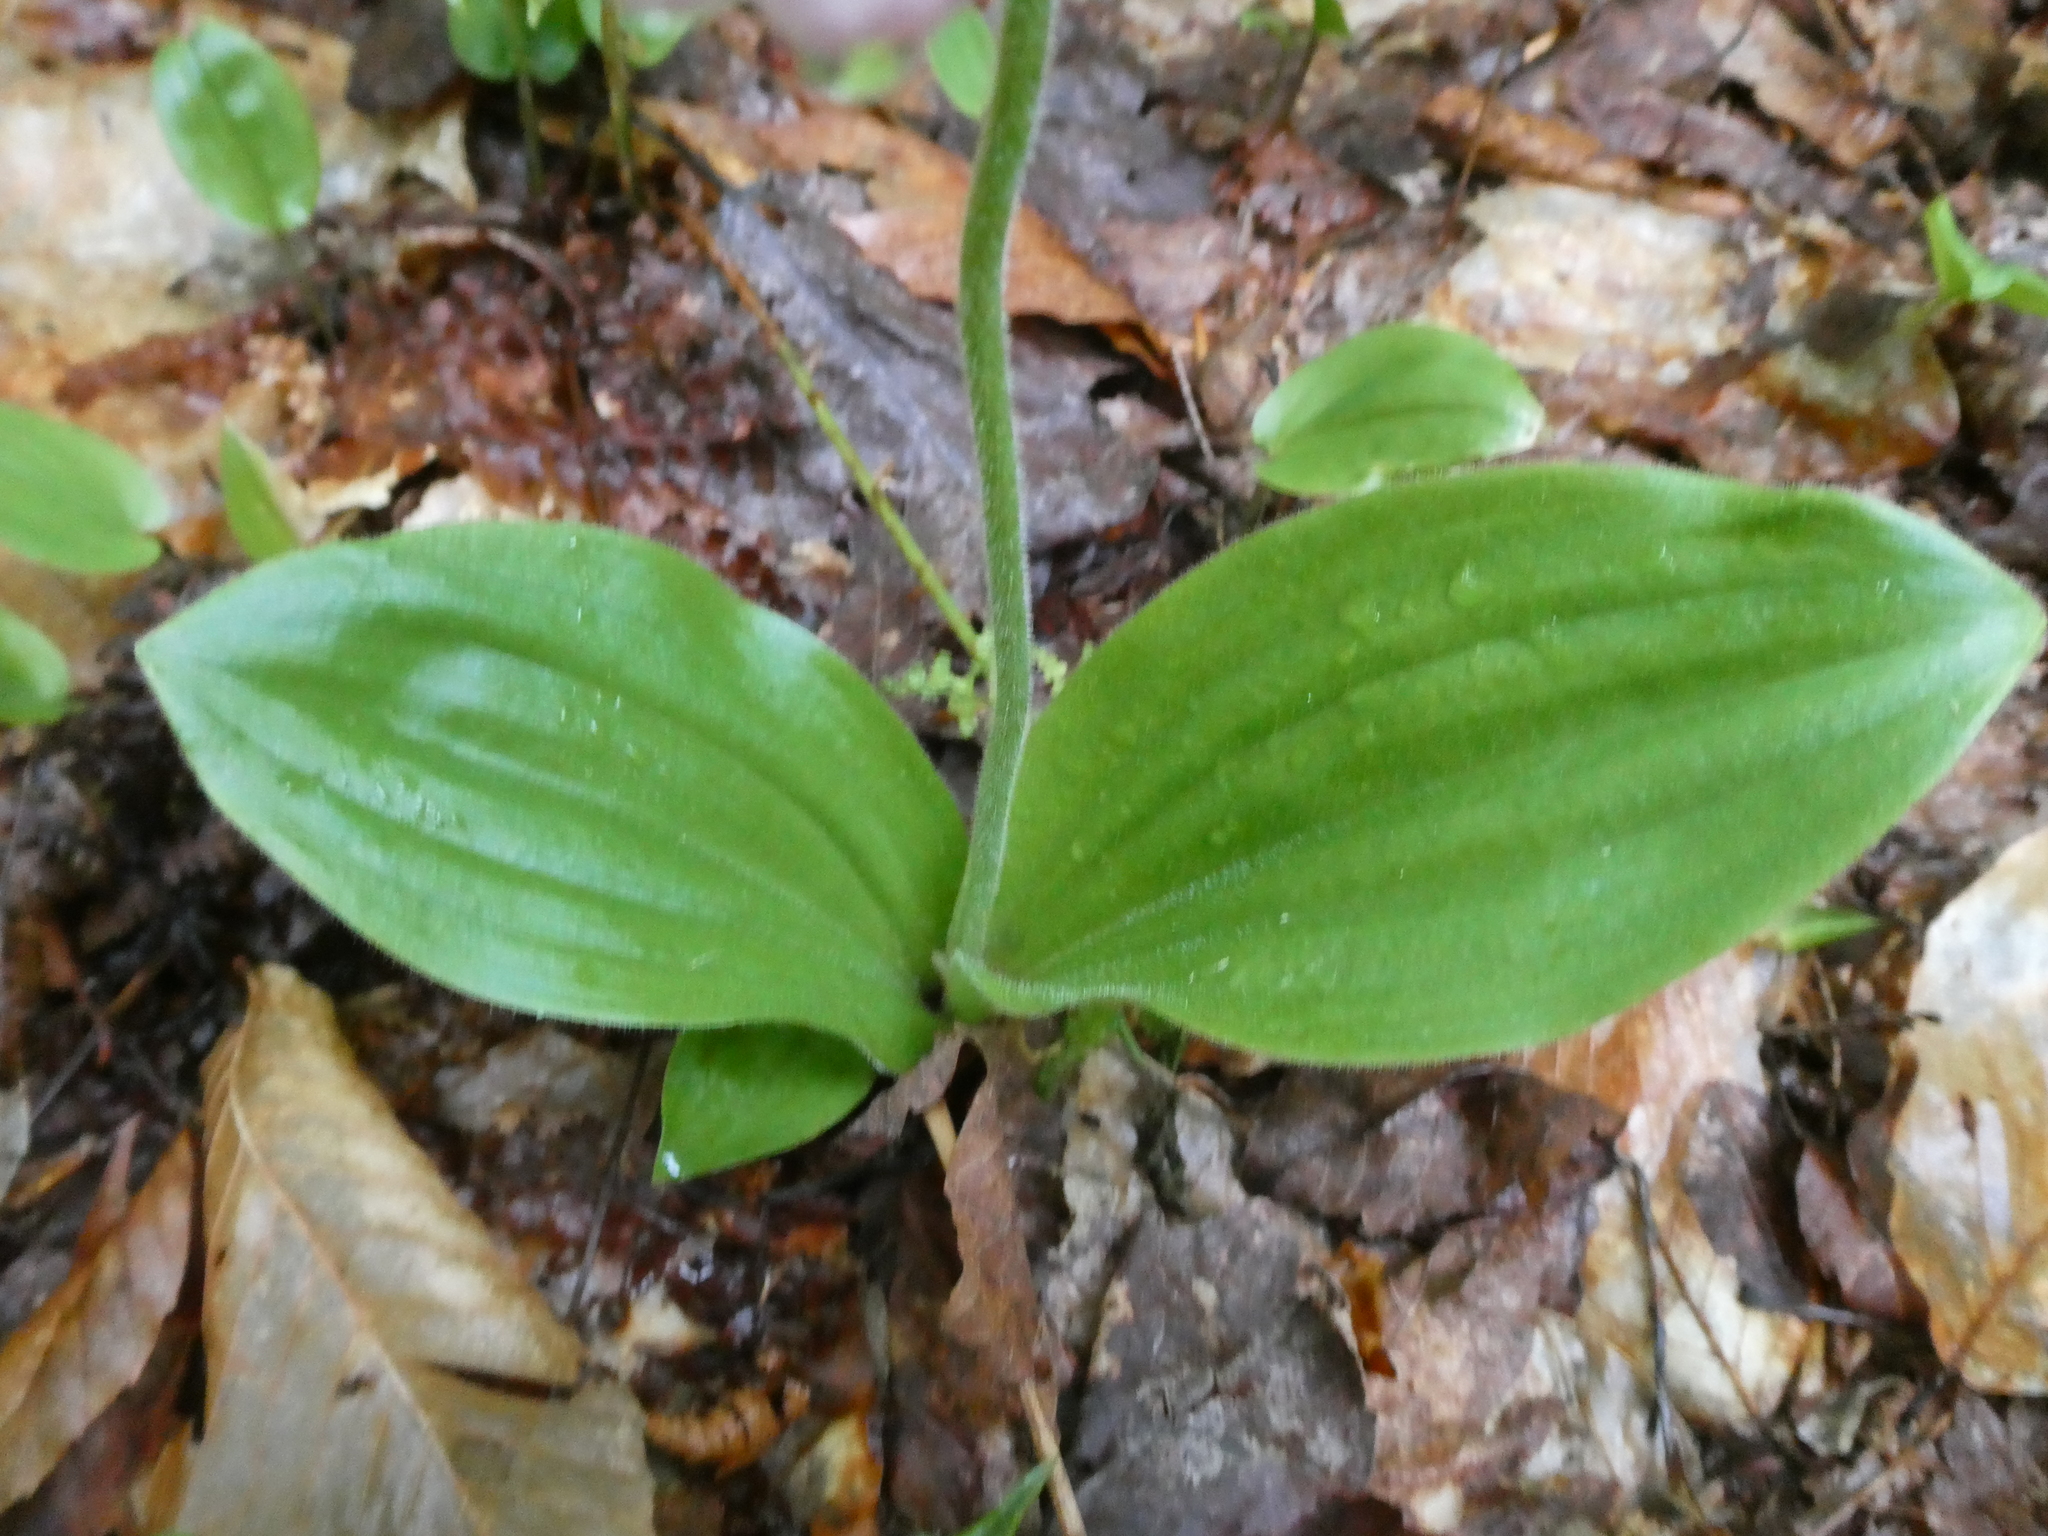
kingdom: Plantae
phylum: Tracheophyta
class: Liliopsida
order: Asparagales
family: Orchidaceae
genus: Cypripedium
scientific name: Cypripedium acaule
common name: Pink lady's-slipper
